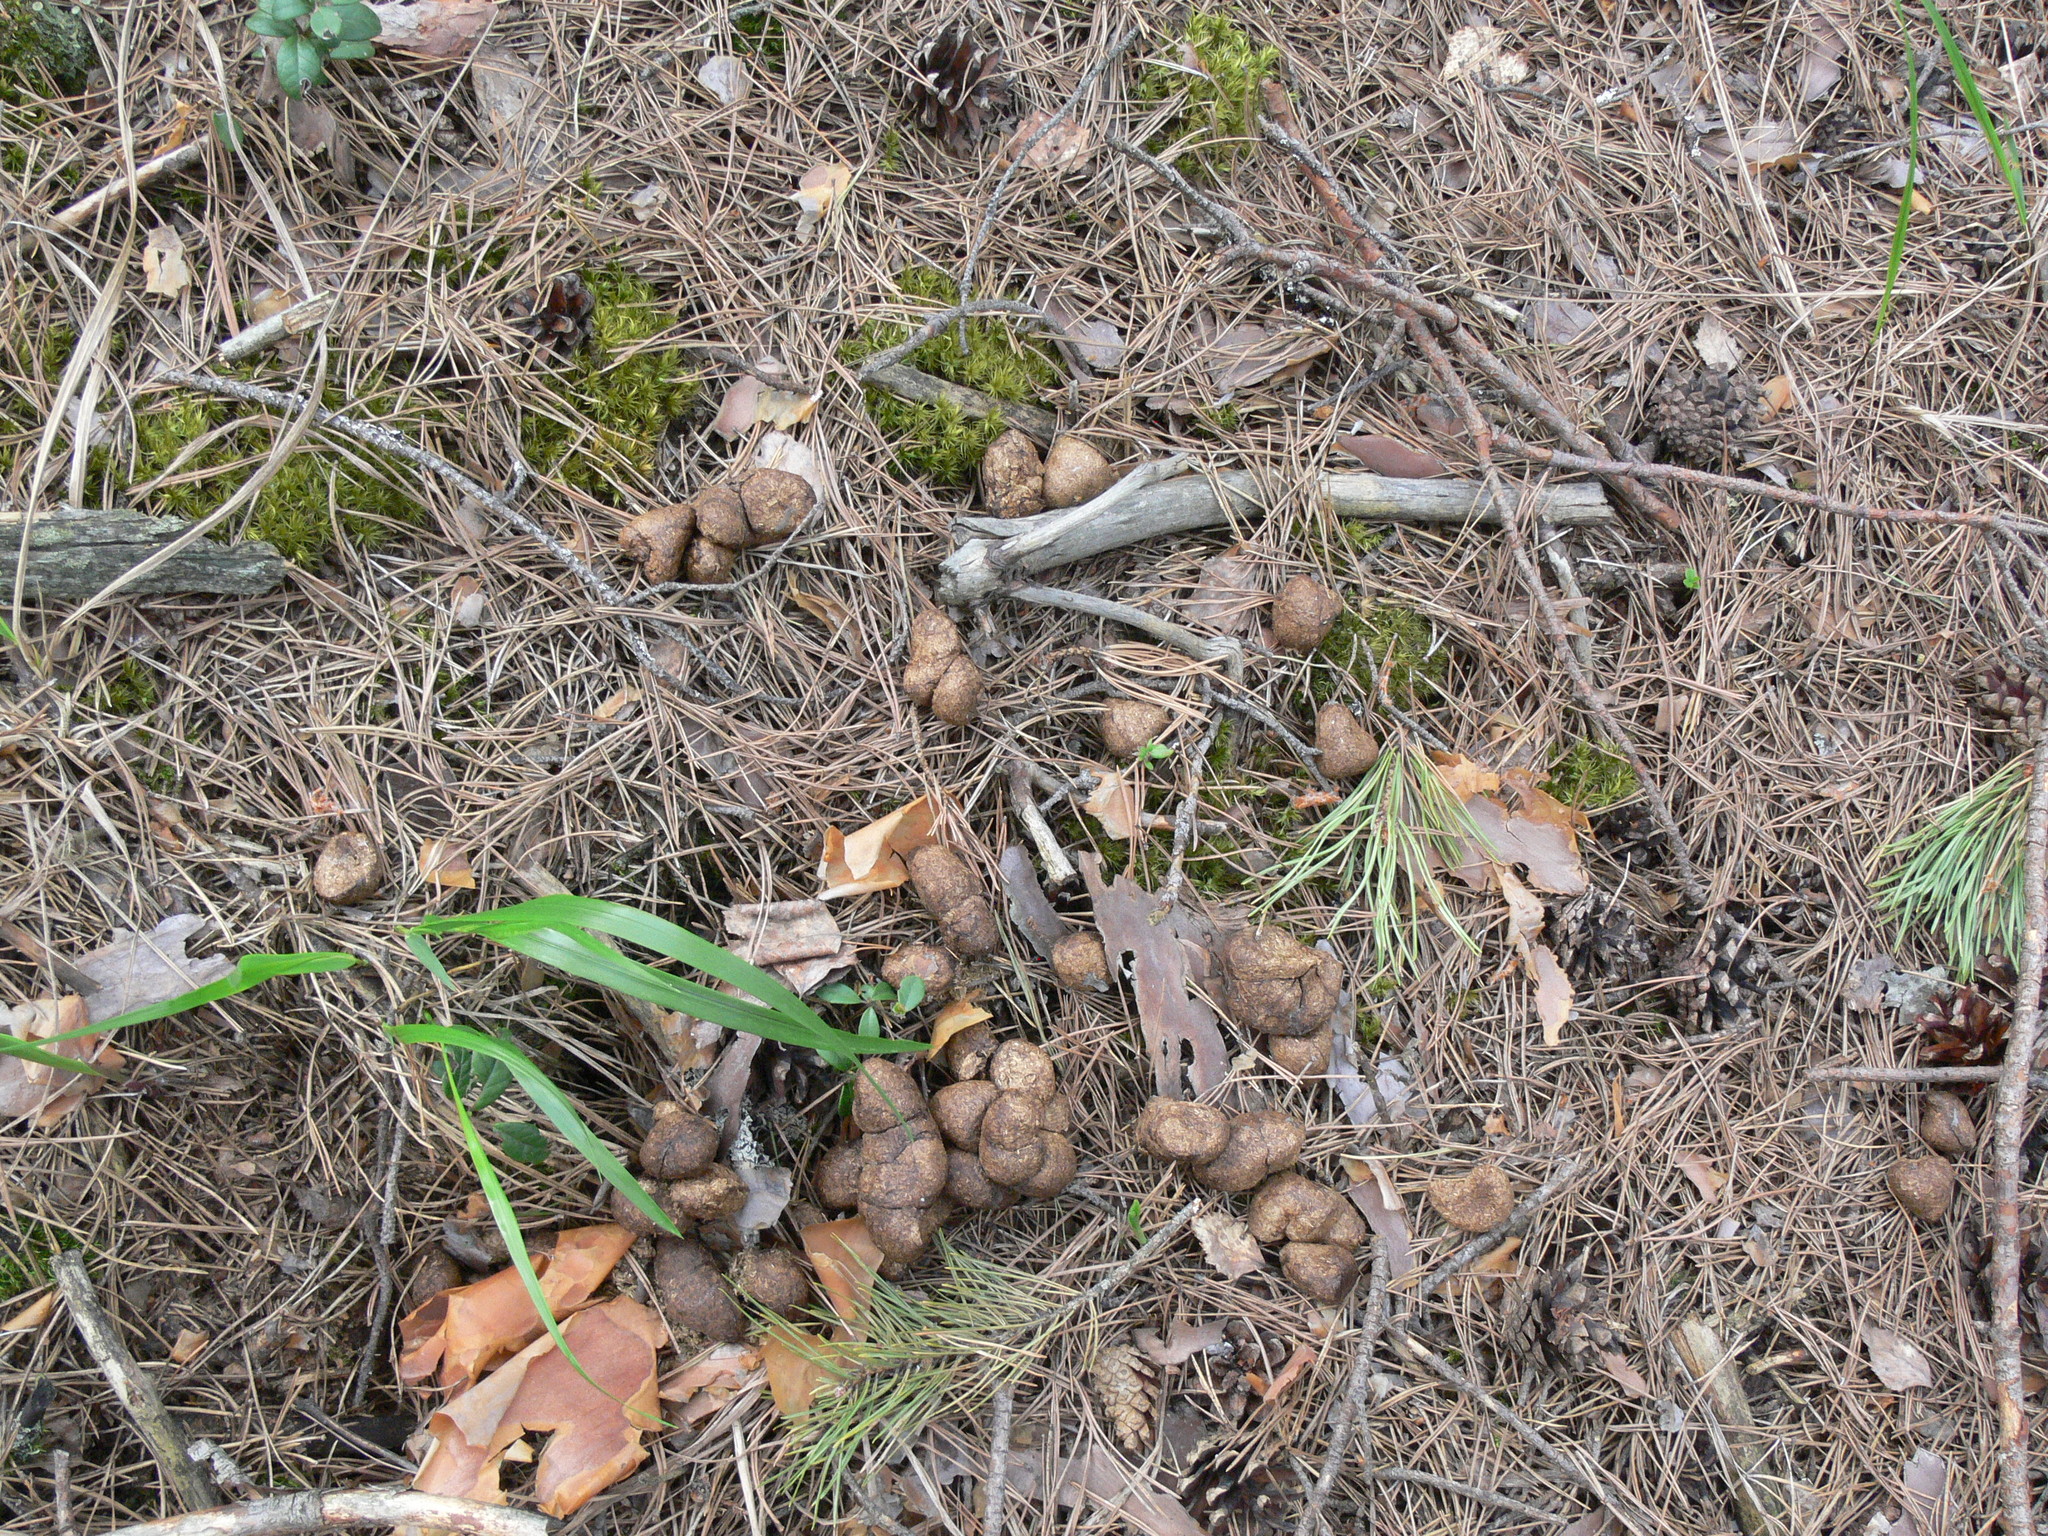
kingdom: Animalia
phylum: Chordata
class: Mammalia
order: Artiodactyla
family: Cervidae
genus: Alces
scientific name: Alces alces
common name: Moose
